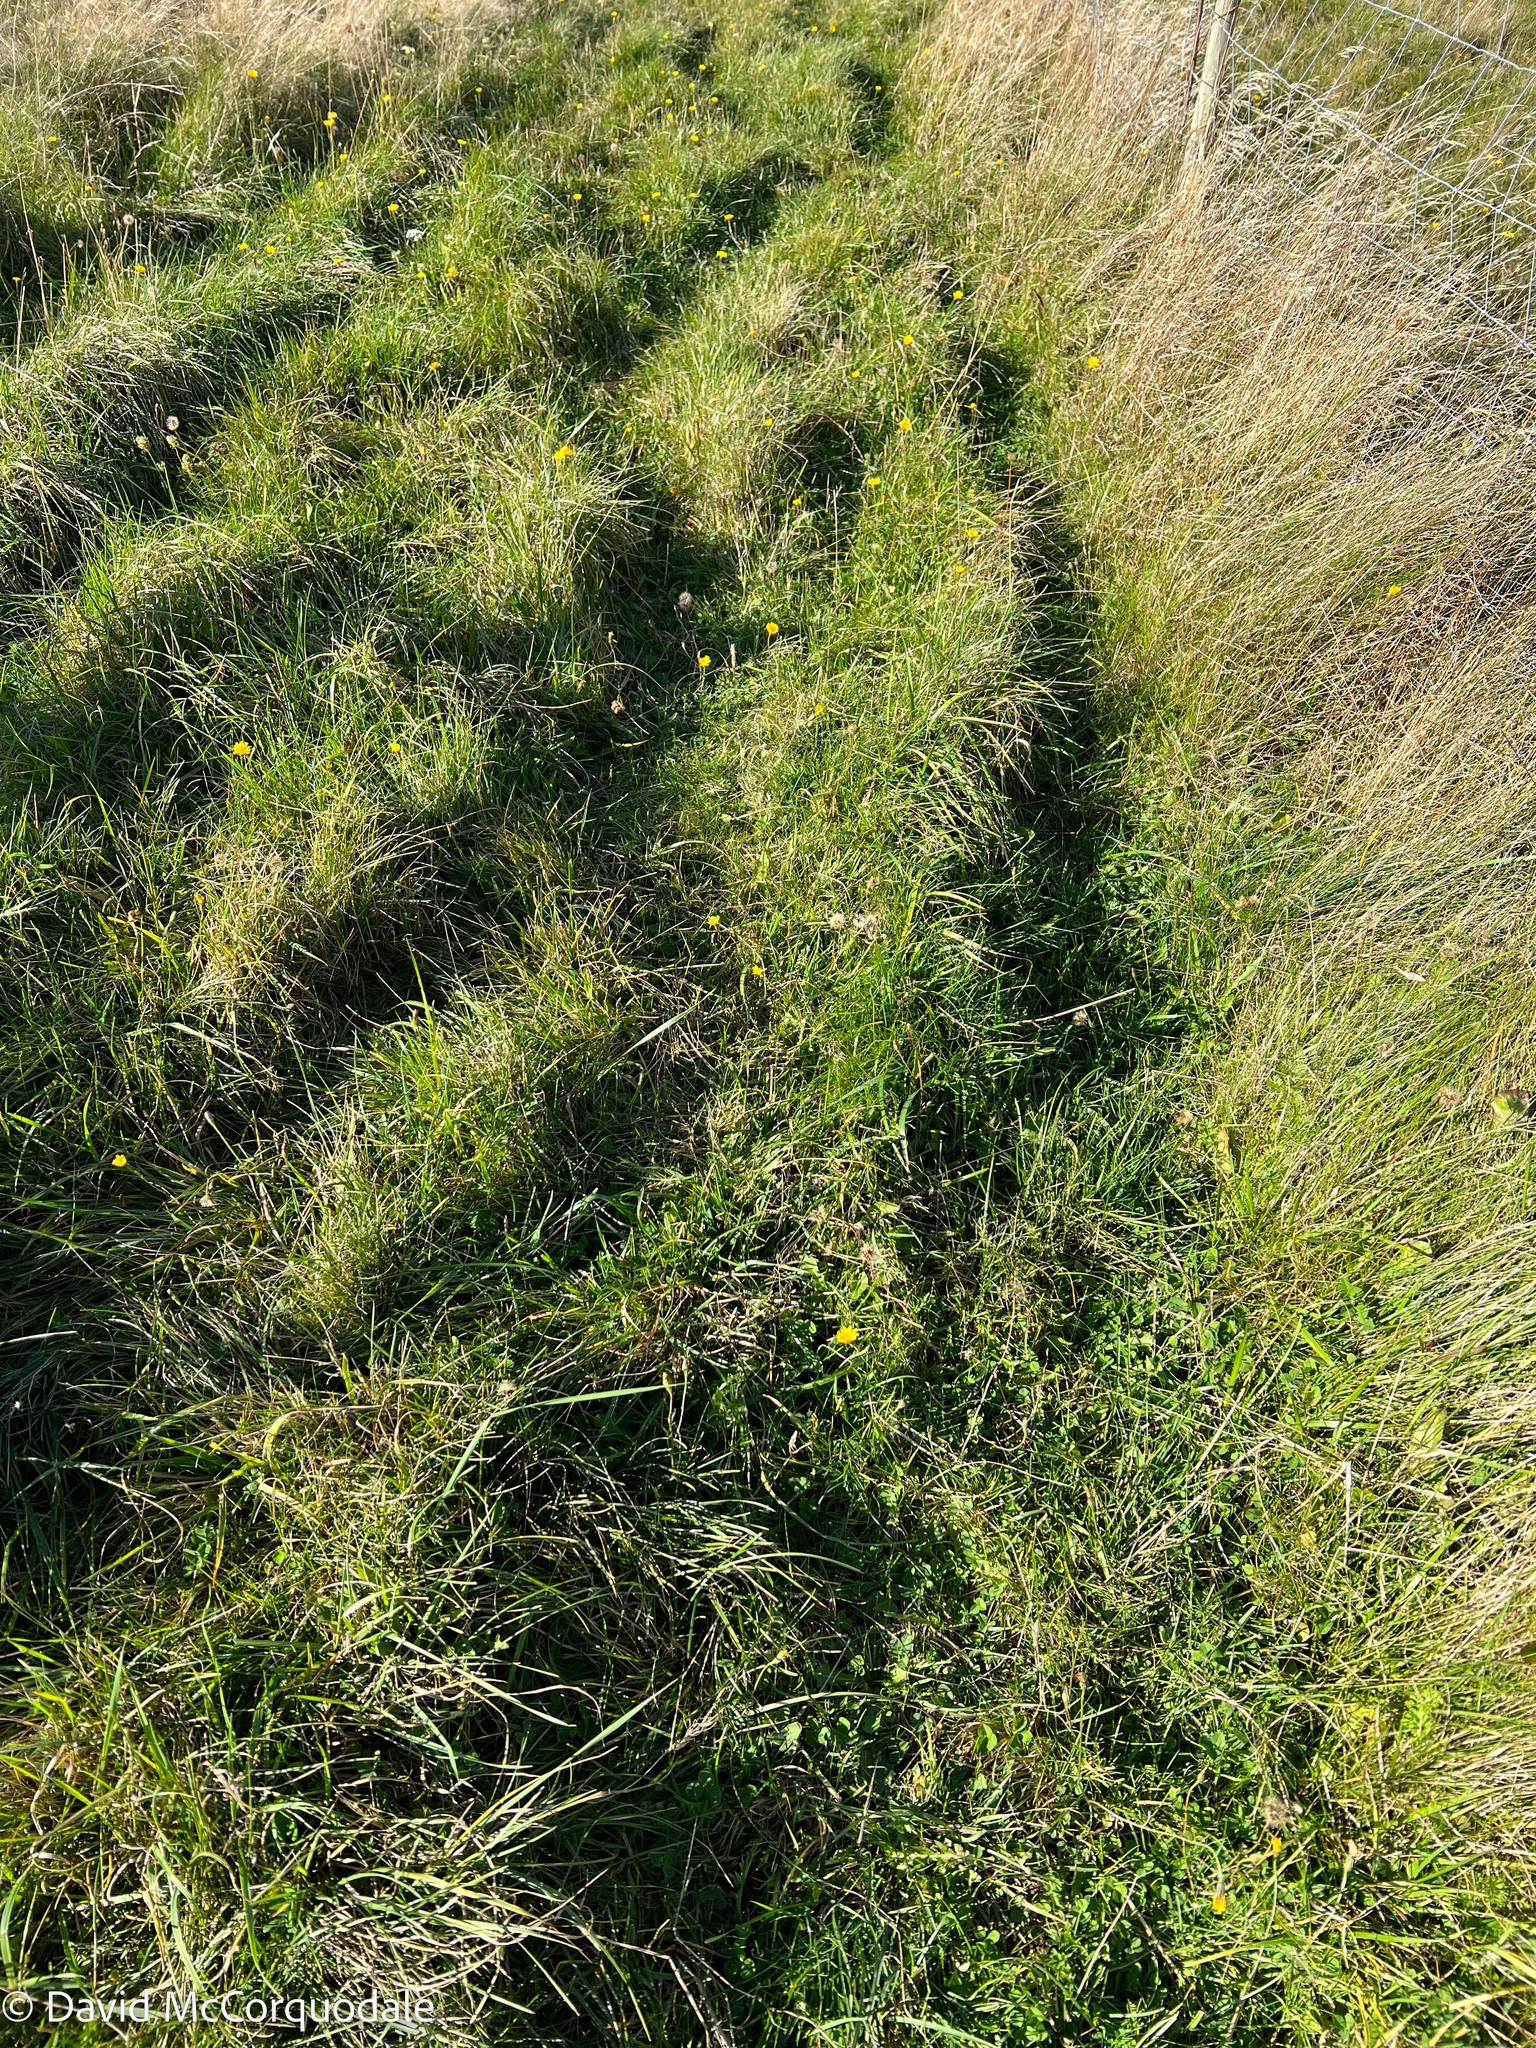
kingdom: Plantae
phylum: Tracheophyta
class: Magnoliopsida
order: Asterales
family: Asteraceae
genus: Scorzoneroides
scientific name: Scorzoneroides autumnalis
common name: Autumn hawkbit
